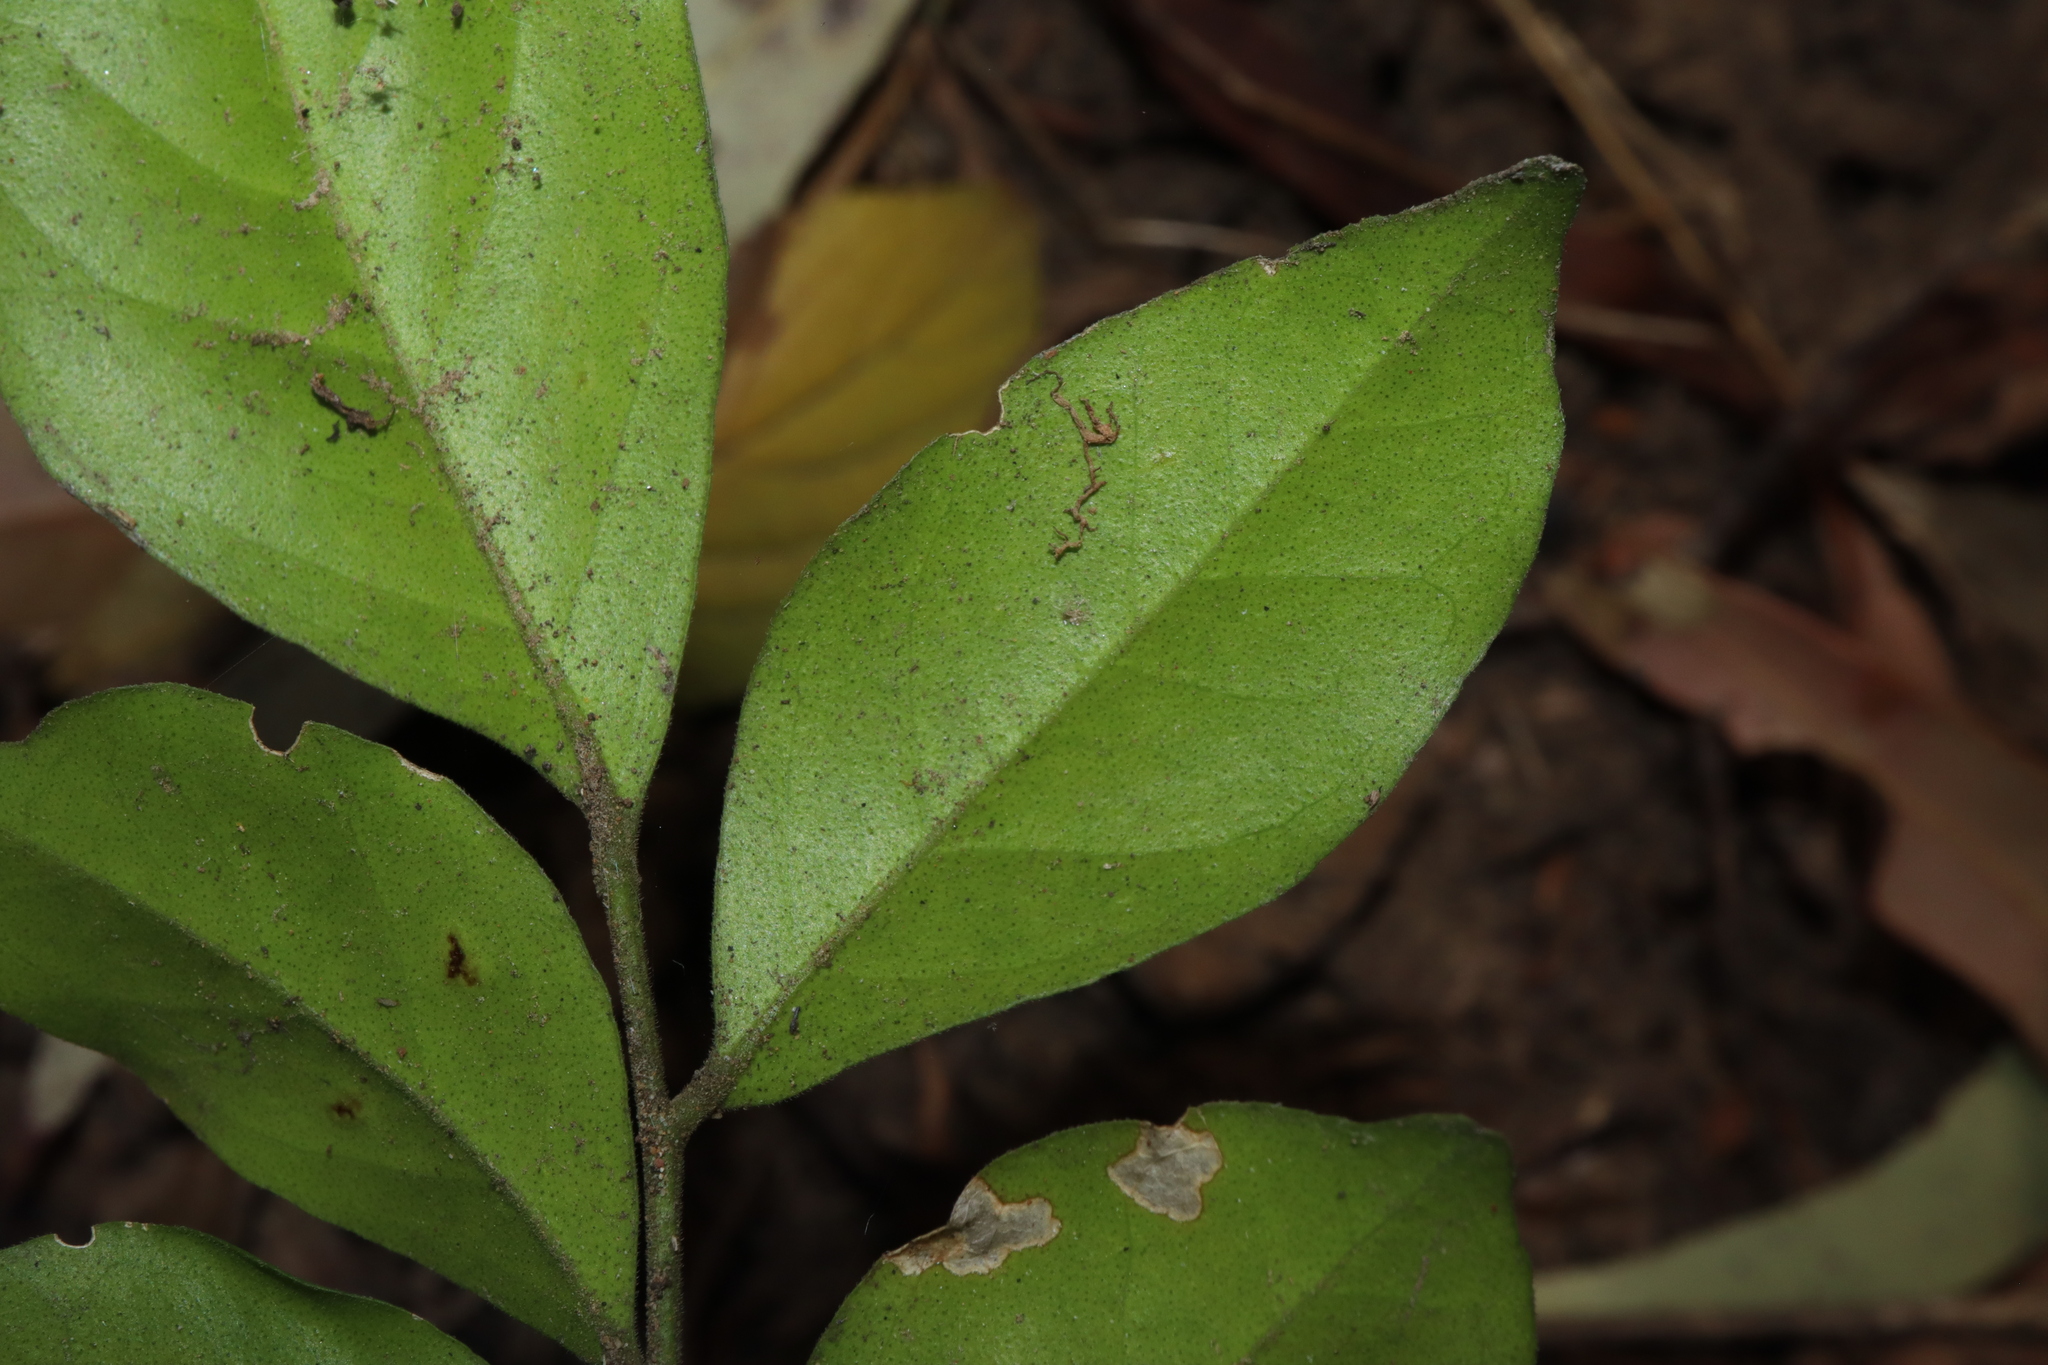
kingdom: Plantae
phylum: Tracheophyta
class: Magnoliopsida
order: Sapindales
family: Rutaceae
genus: Murraya
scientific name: Murraya paniculata
